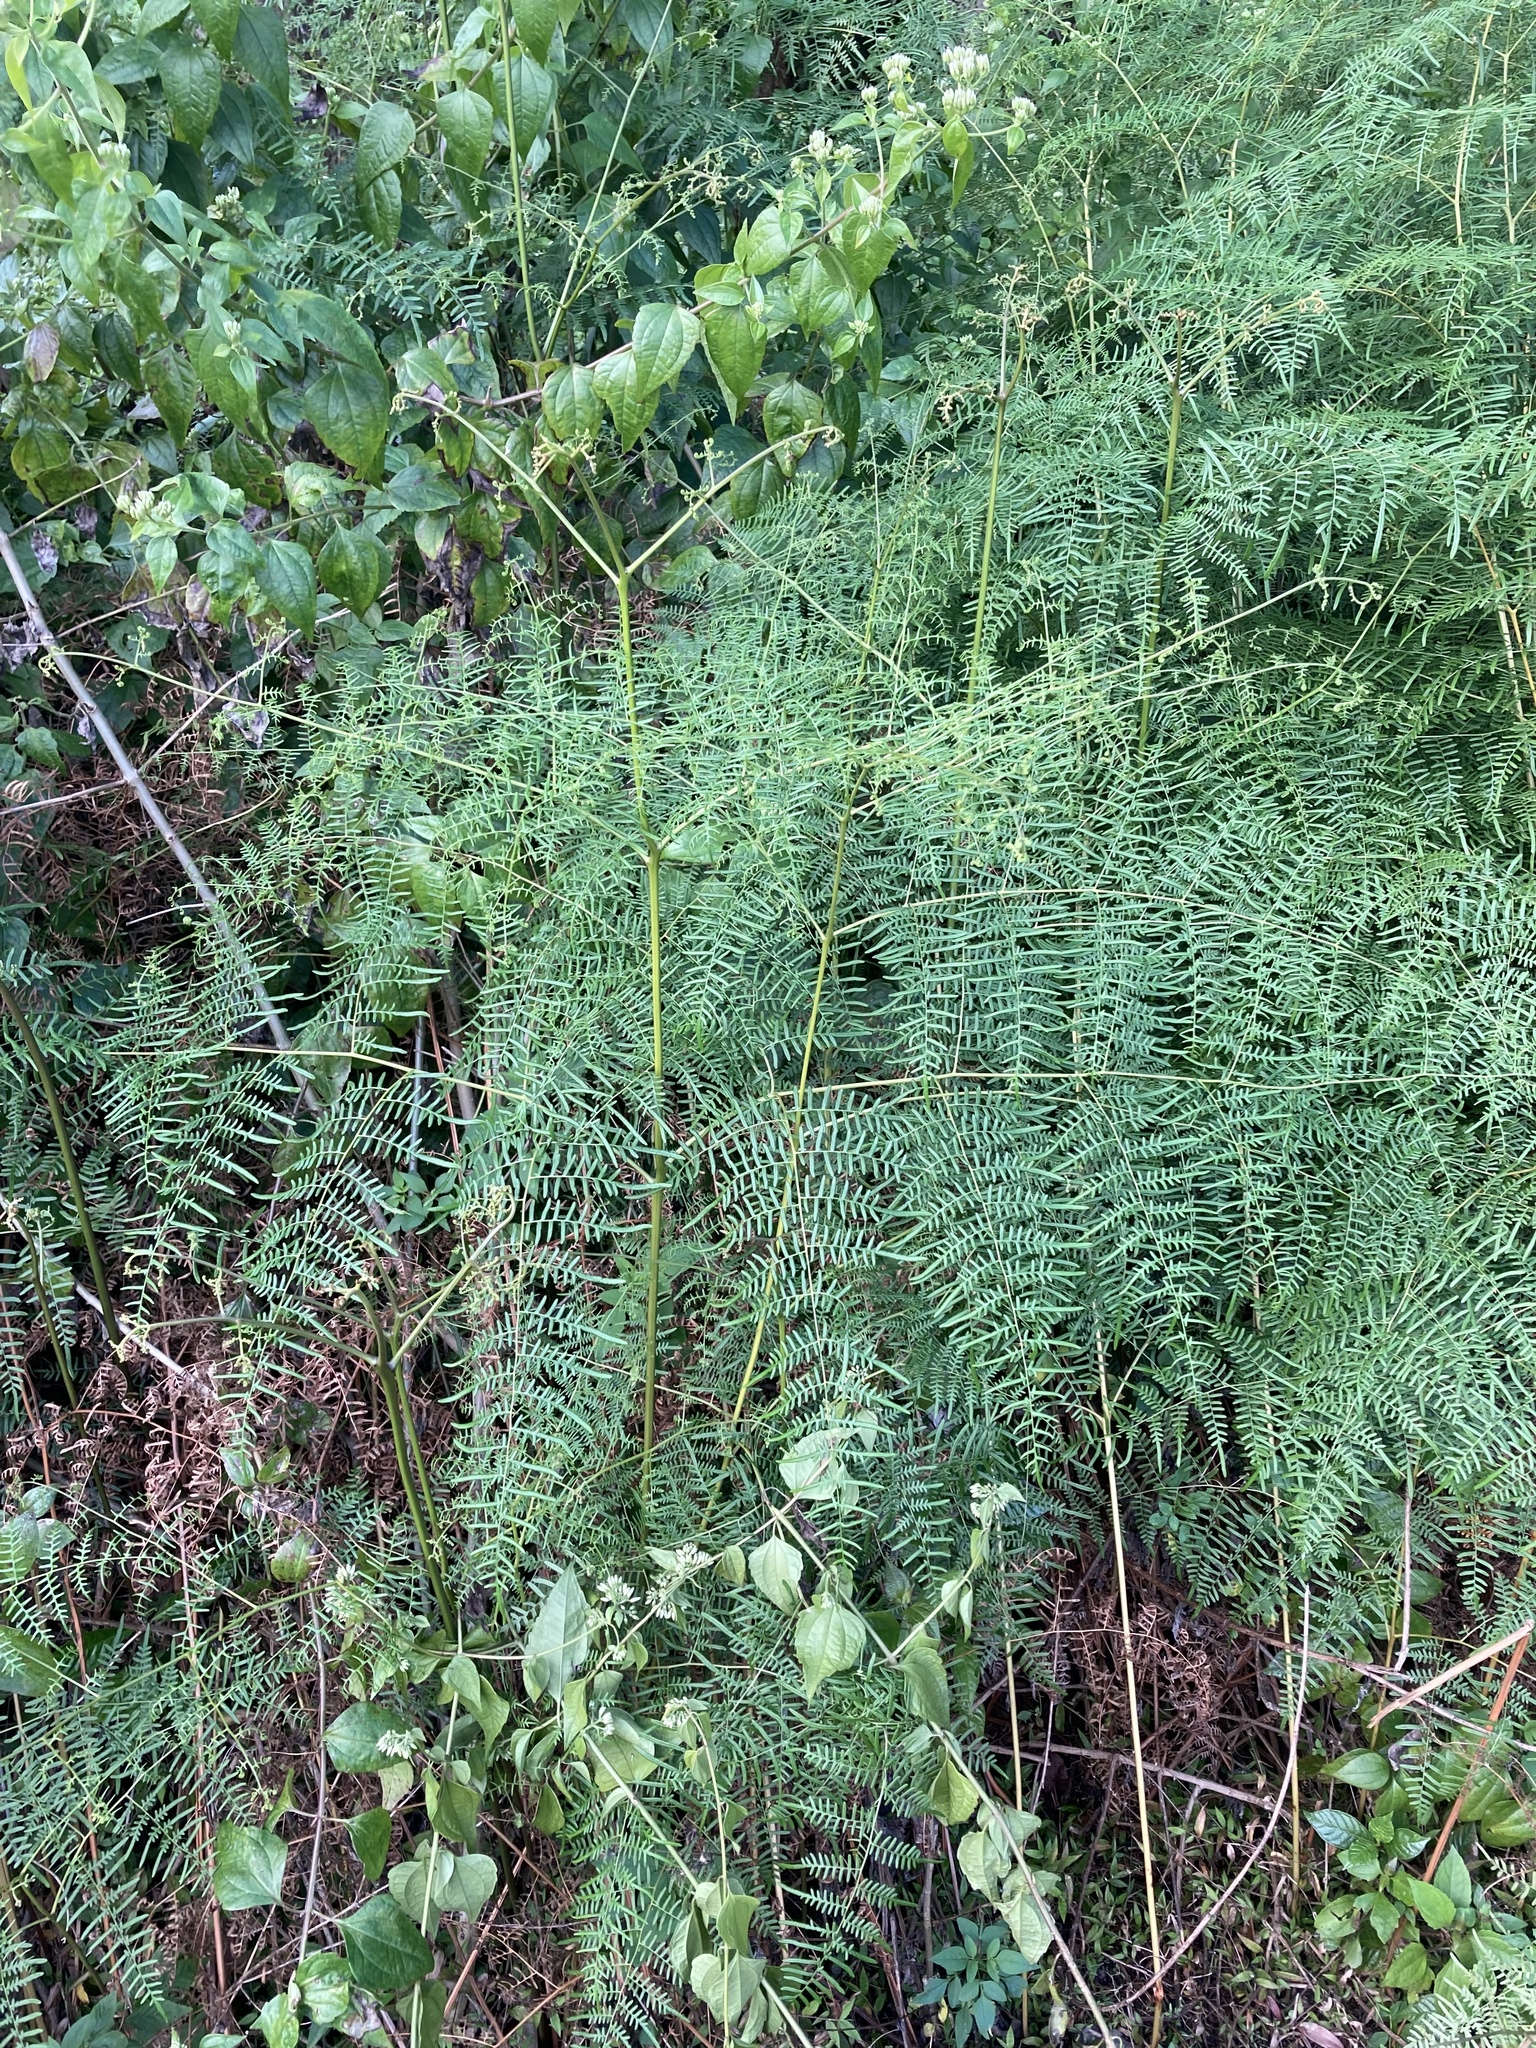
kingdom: Plantae
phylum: Tracheophyta
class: Polypodiopsida
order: Polypodiales
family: Dennstaedtiaceae
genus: Pteridium
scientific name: Pteridium caudatum
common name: Southern bracken fern
